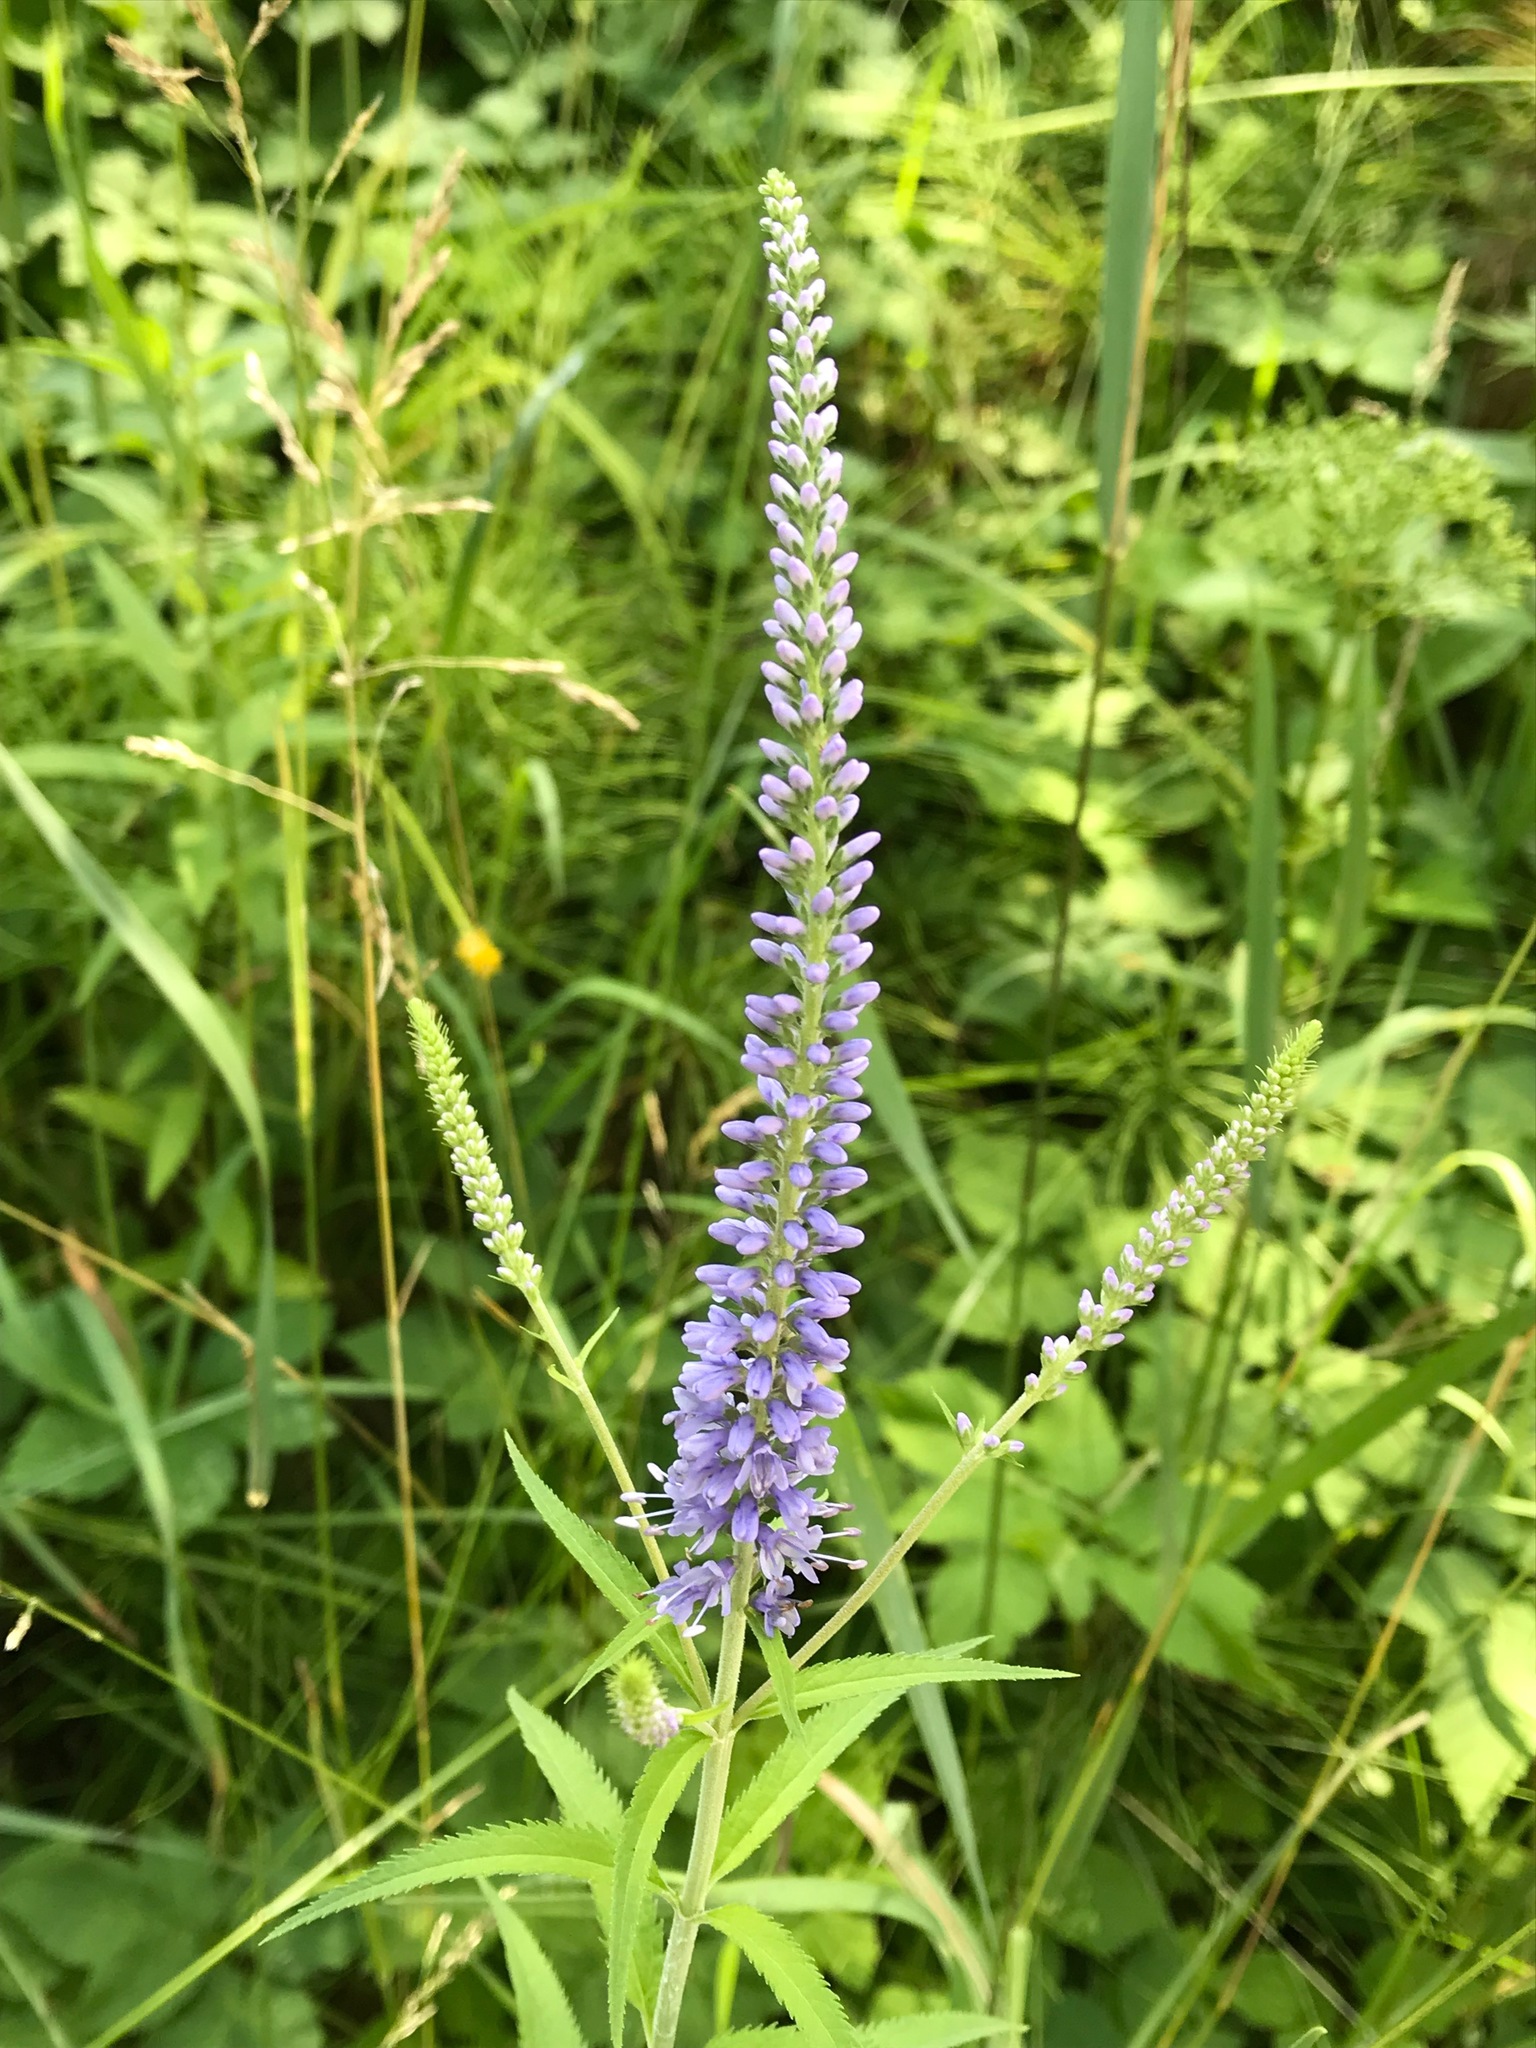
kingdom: Plantae
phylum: Tracheophyta
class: Magnoliopsida
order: Lamiales
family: Plantaginaceae
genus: Veronica
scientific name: Veronica longifolia
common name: Garden speedwell
